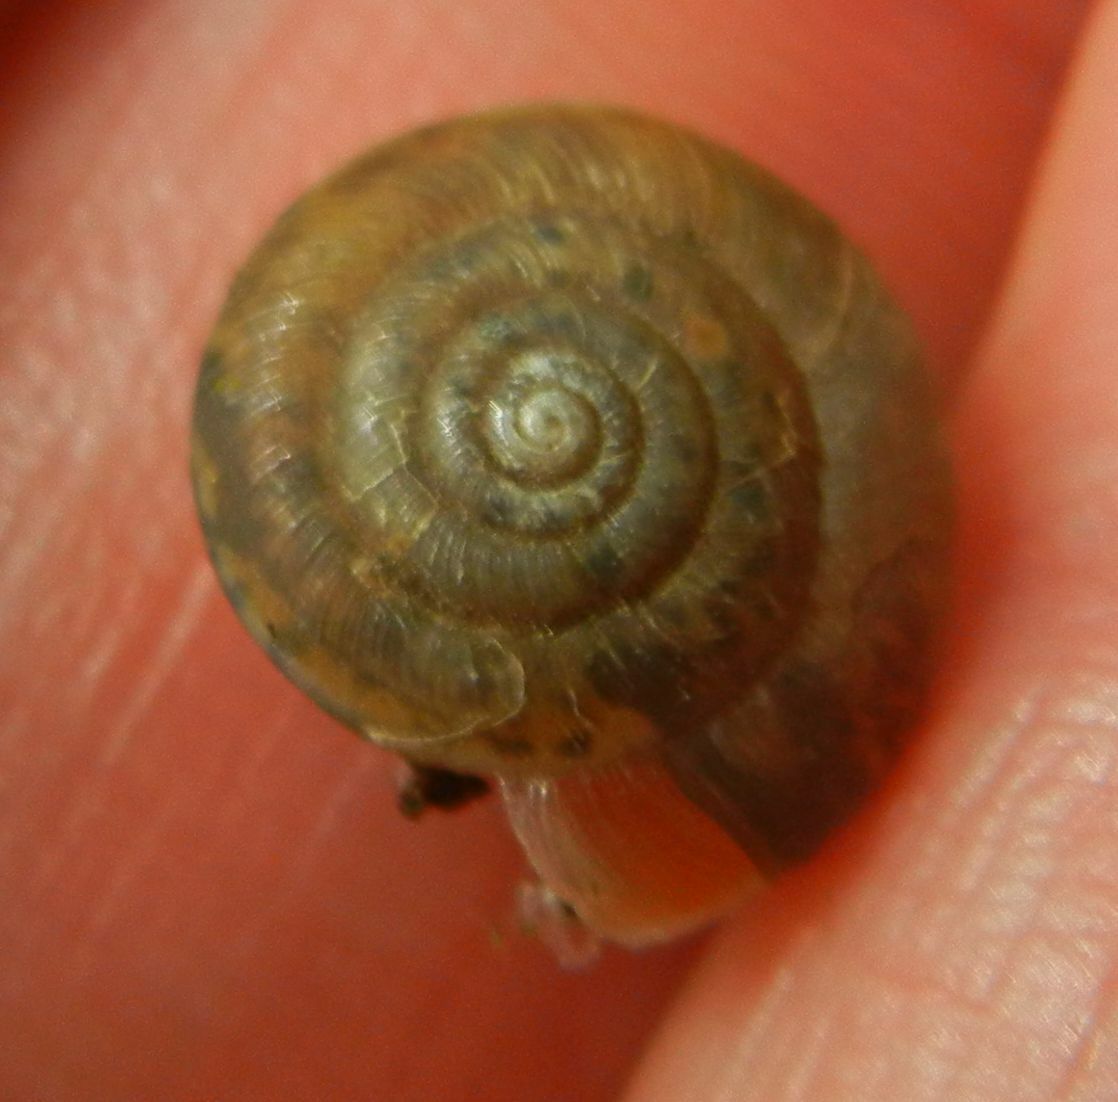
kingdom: Animalia
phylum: Mollusca
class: Gastropoda
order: Stylommatophora
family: Hygromiidae
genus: Trochulus
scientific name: Trochulus striolatus
